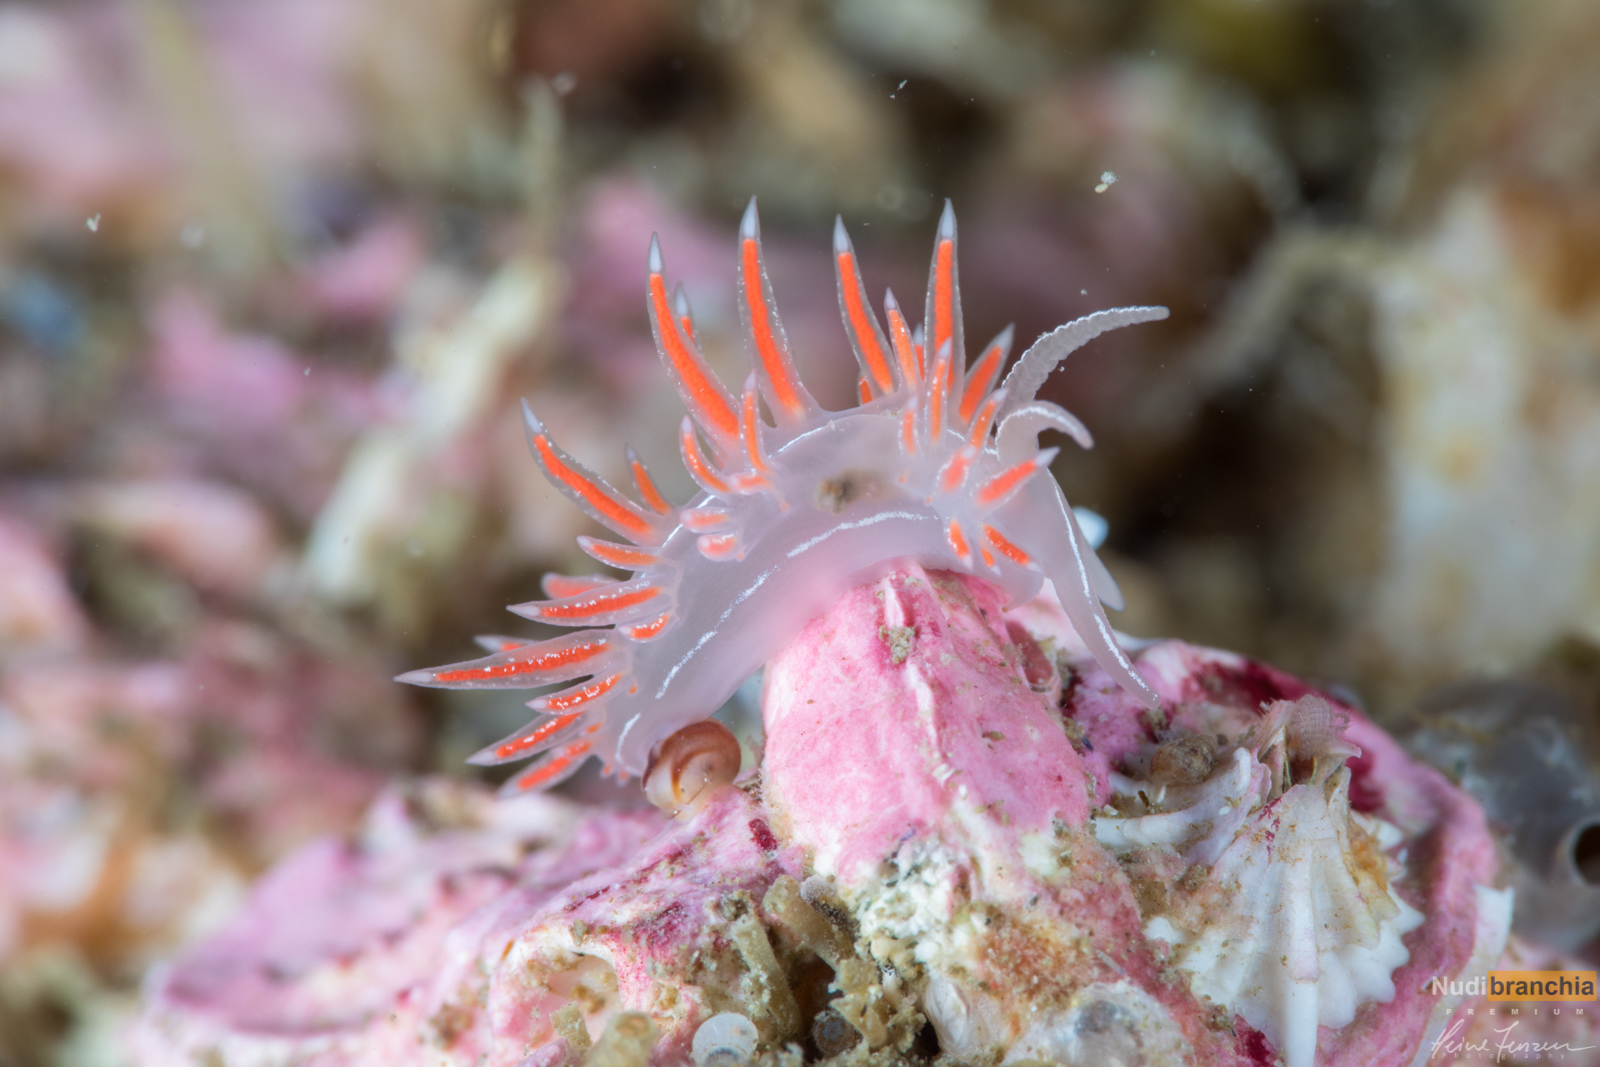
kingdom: Animalia
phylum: Mollusca
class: Gastropoda
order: Nudibranchia
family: Coryphellidae
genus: Coryphella
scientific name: Coryphella chriskaugei
